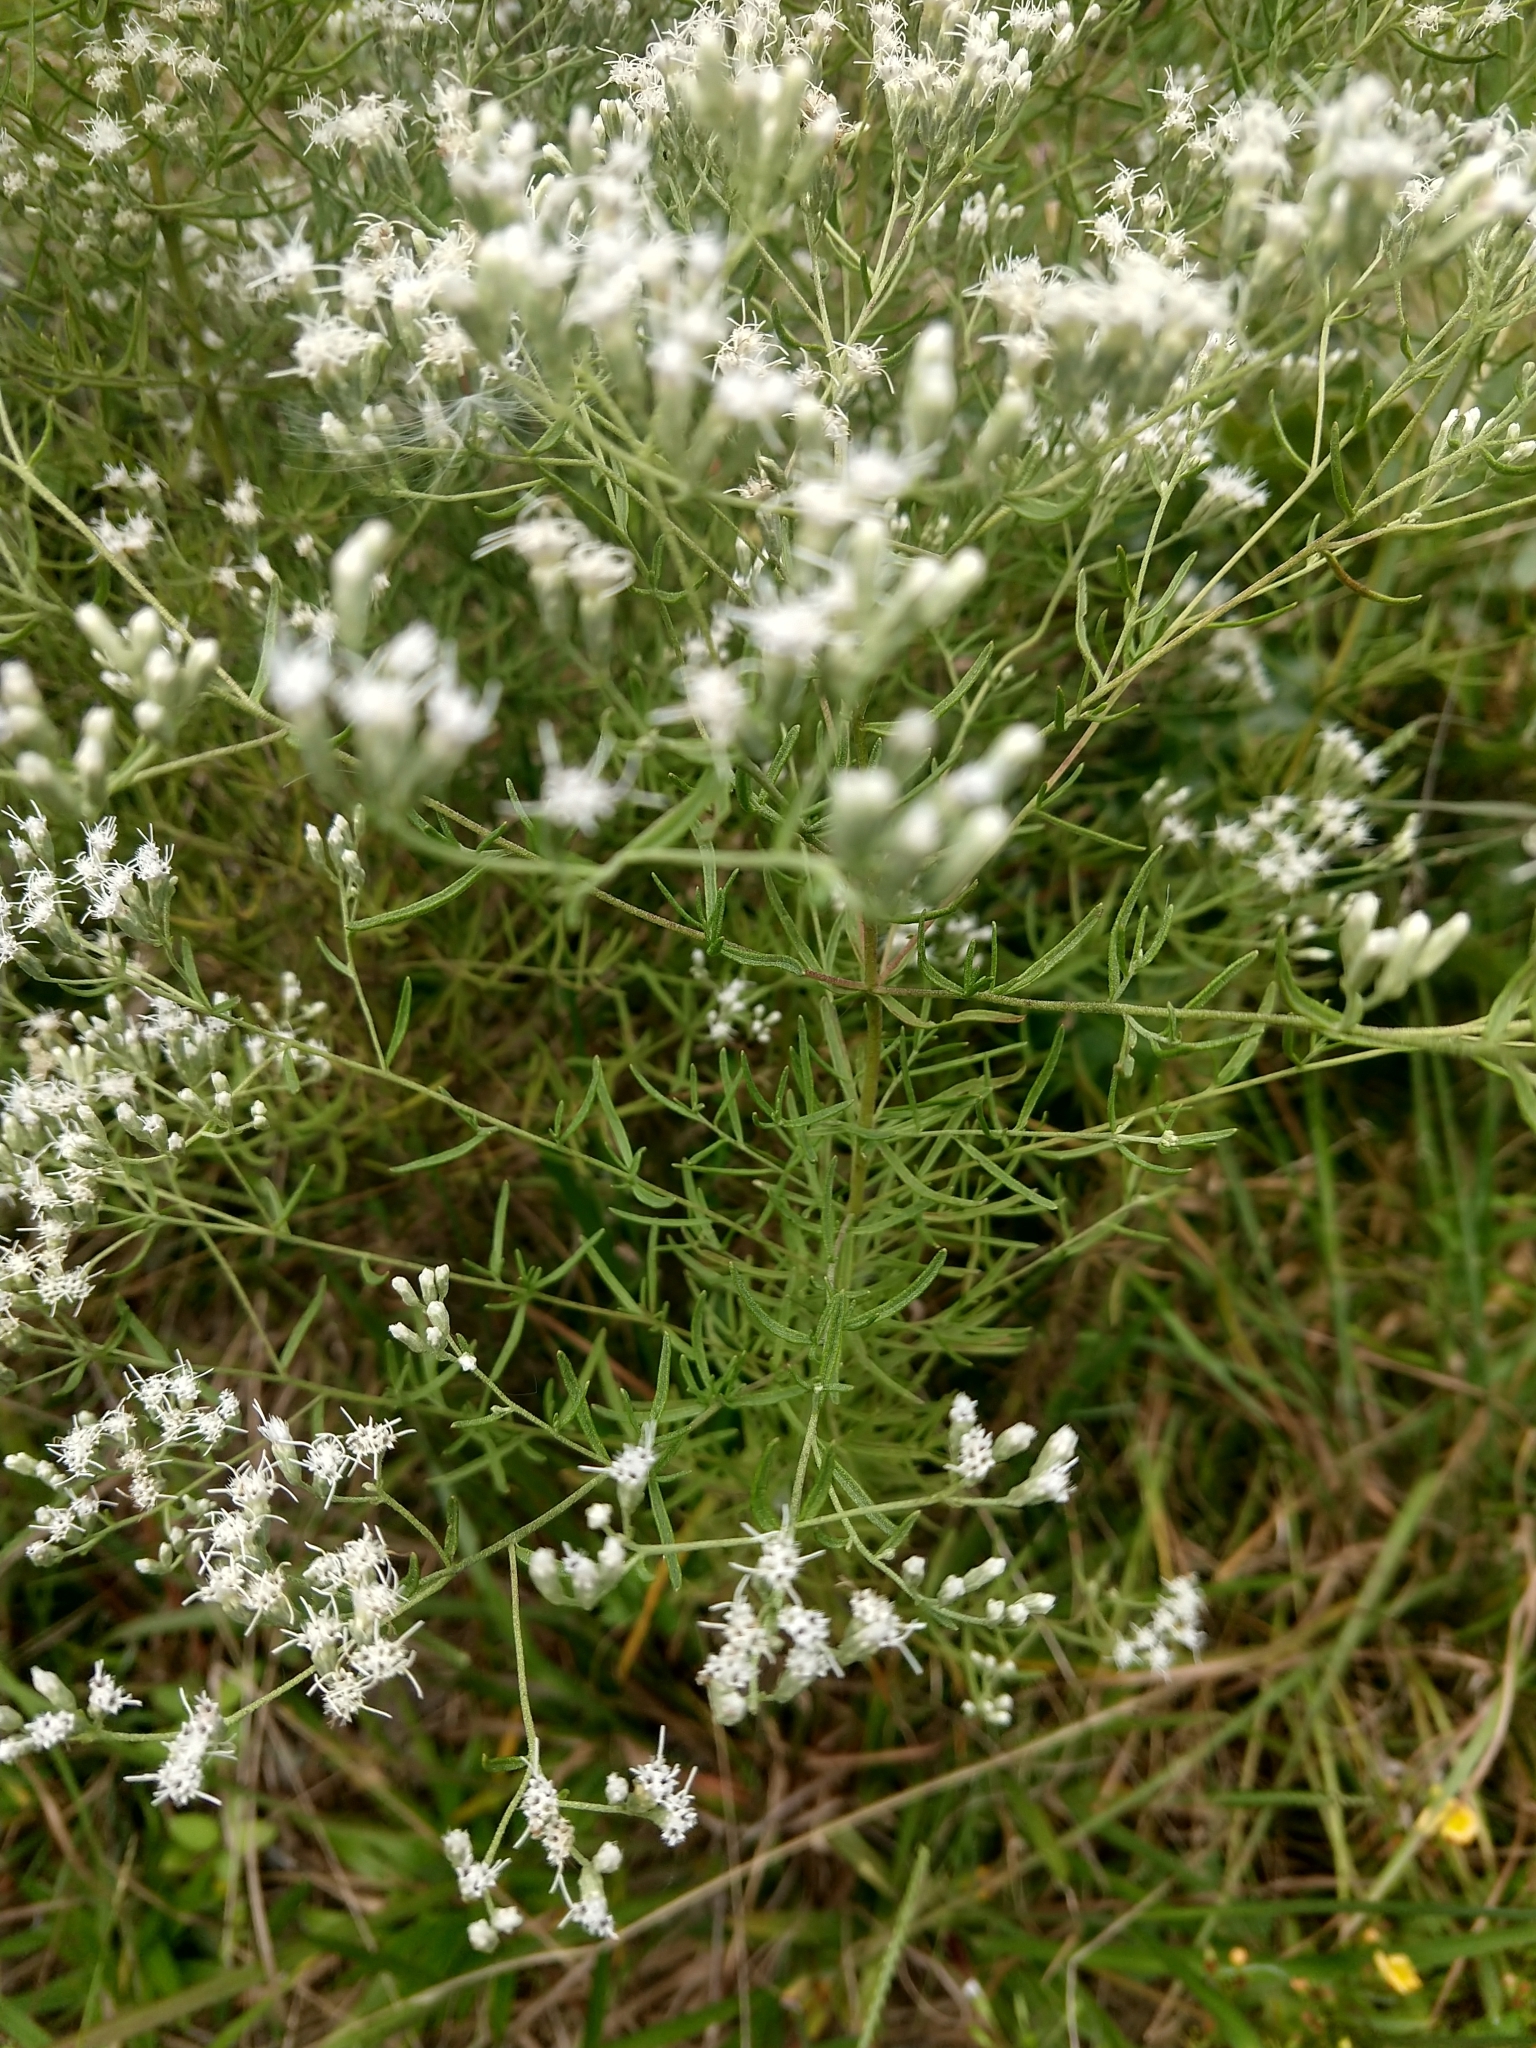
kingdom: Plantae
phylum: Tracheophyta
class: Magnoliopsida
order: Asterales
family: Asteraceae
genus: Eupatorium
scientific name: Eupatorium hyssopifolium
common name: Hyssop-leaf thoroughwort
